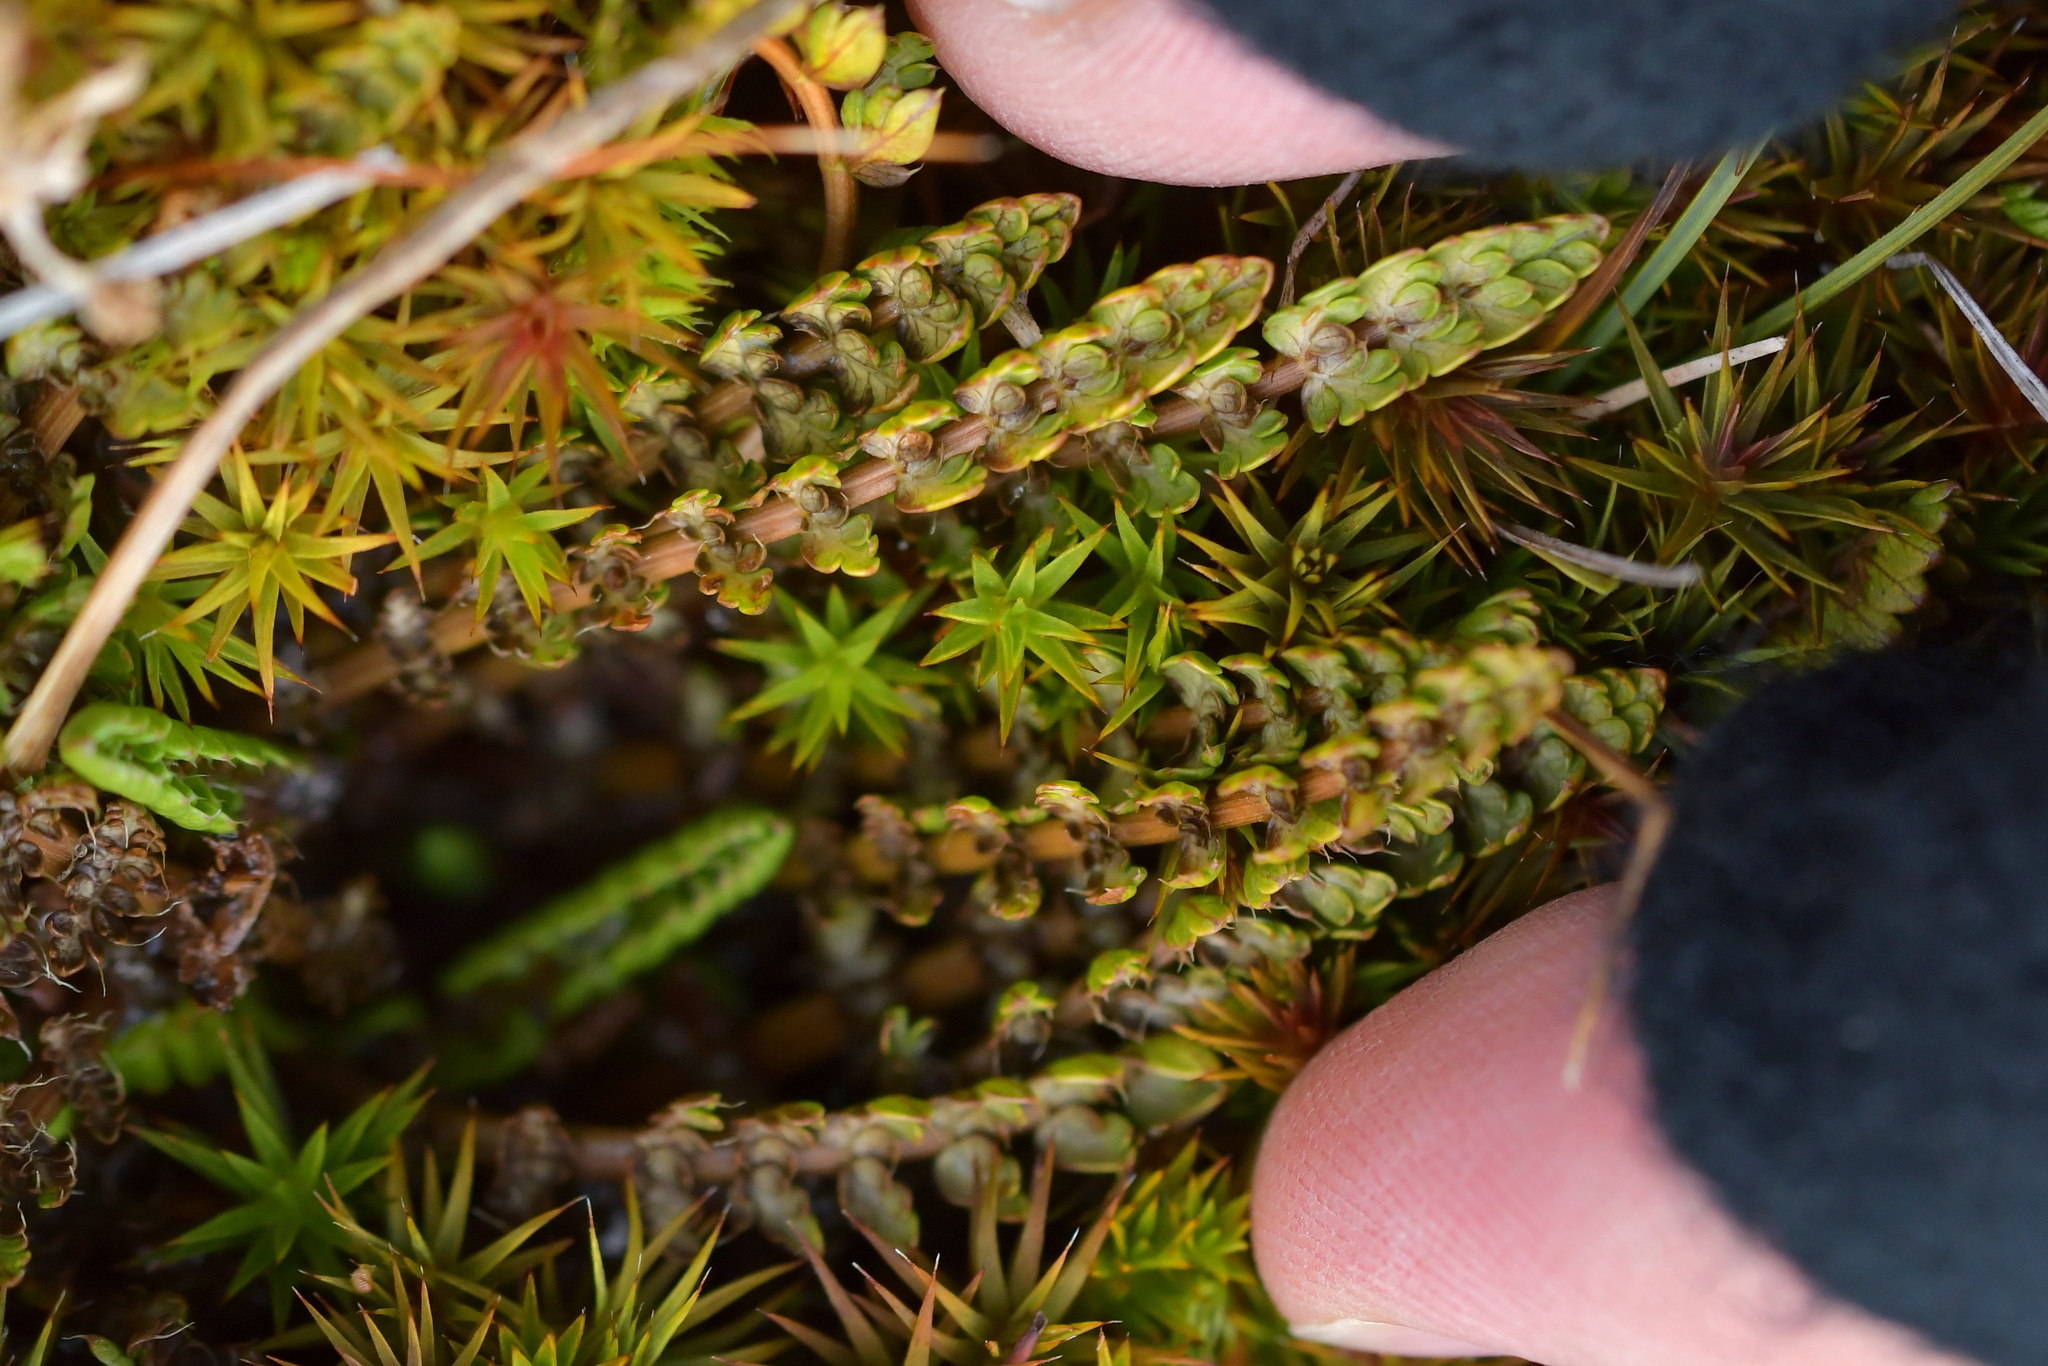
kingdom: Plantae
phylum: Tracheophyta
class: Magnoliopsida
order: Apiales
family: Apiaceae
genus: Anisotome
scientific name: Anisotome flexuosa
